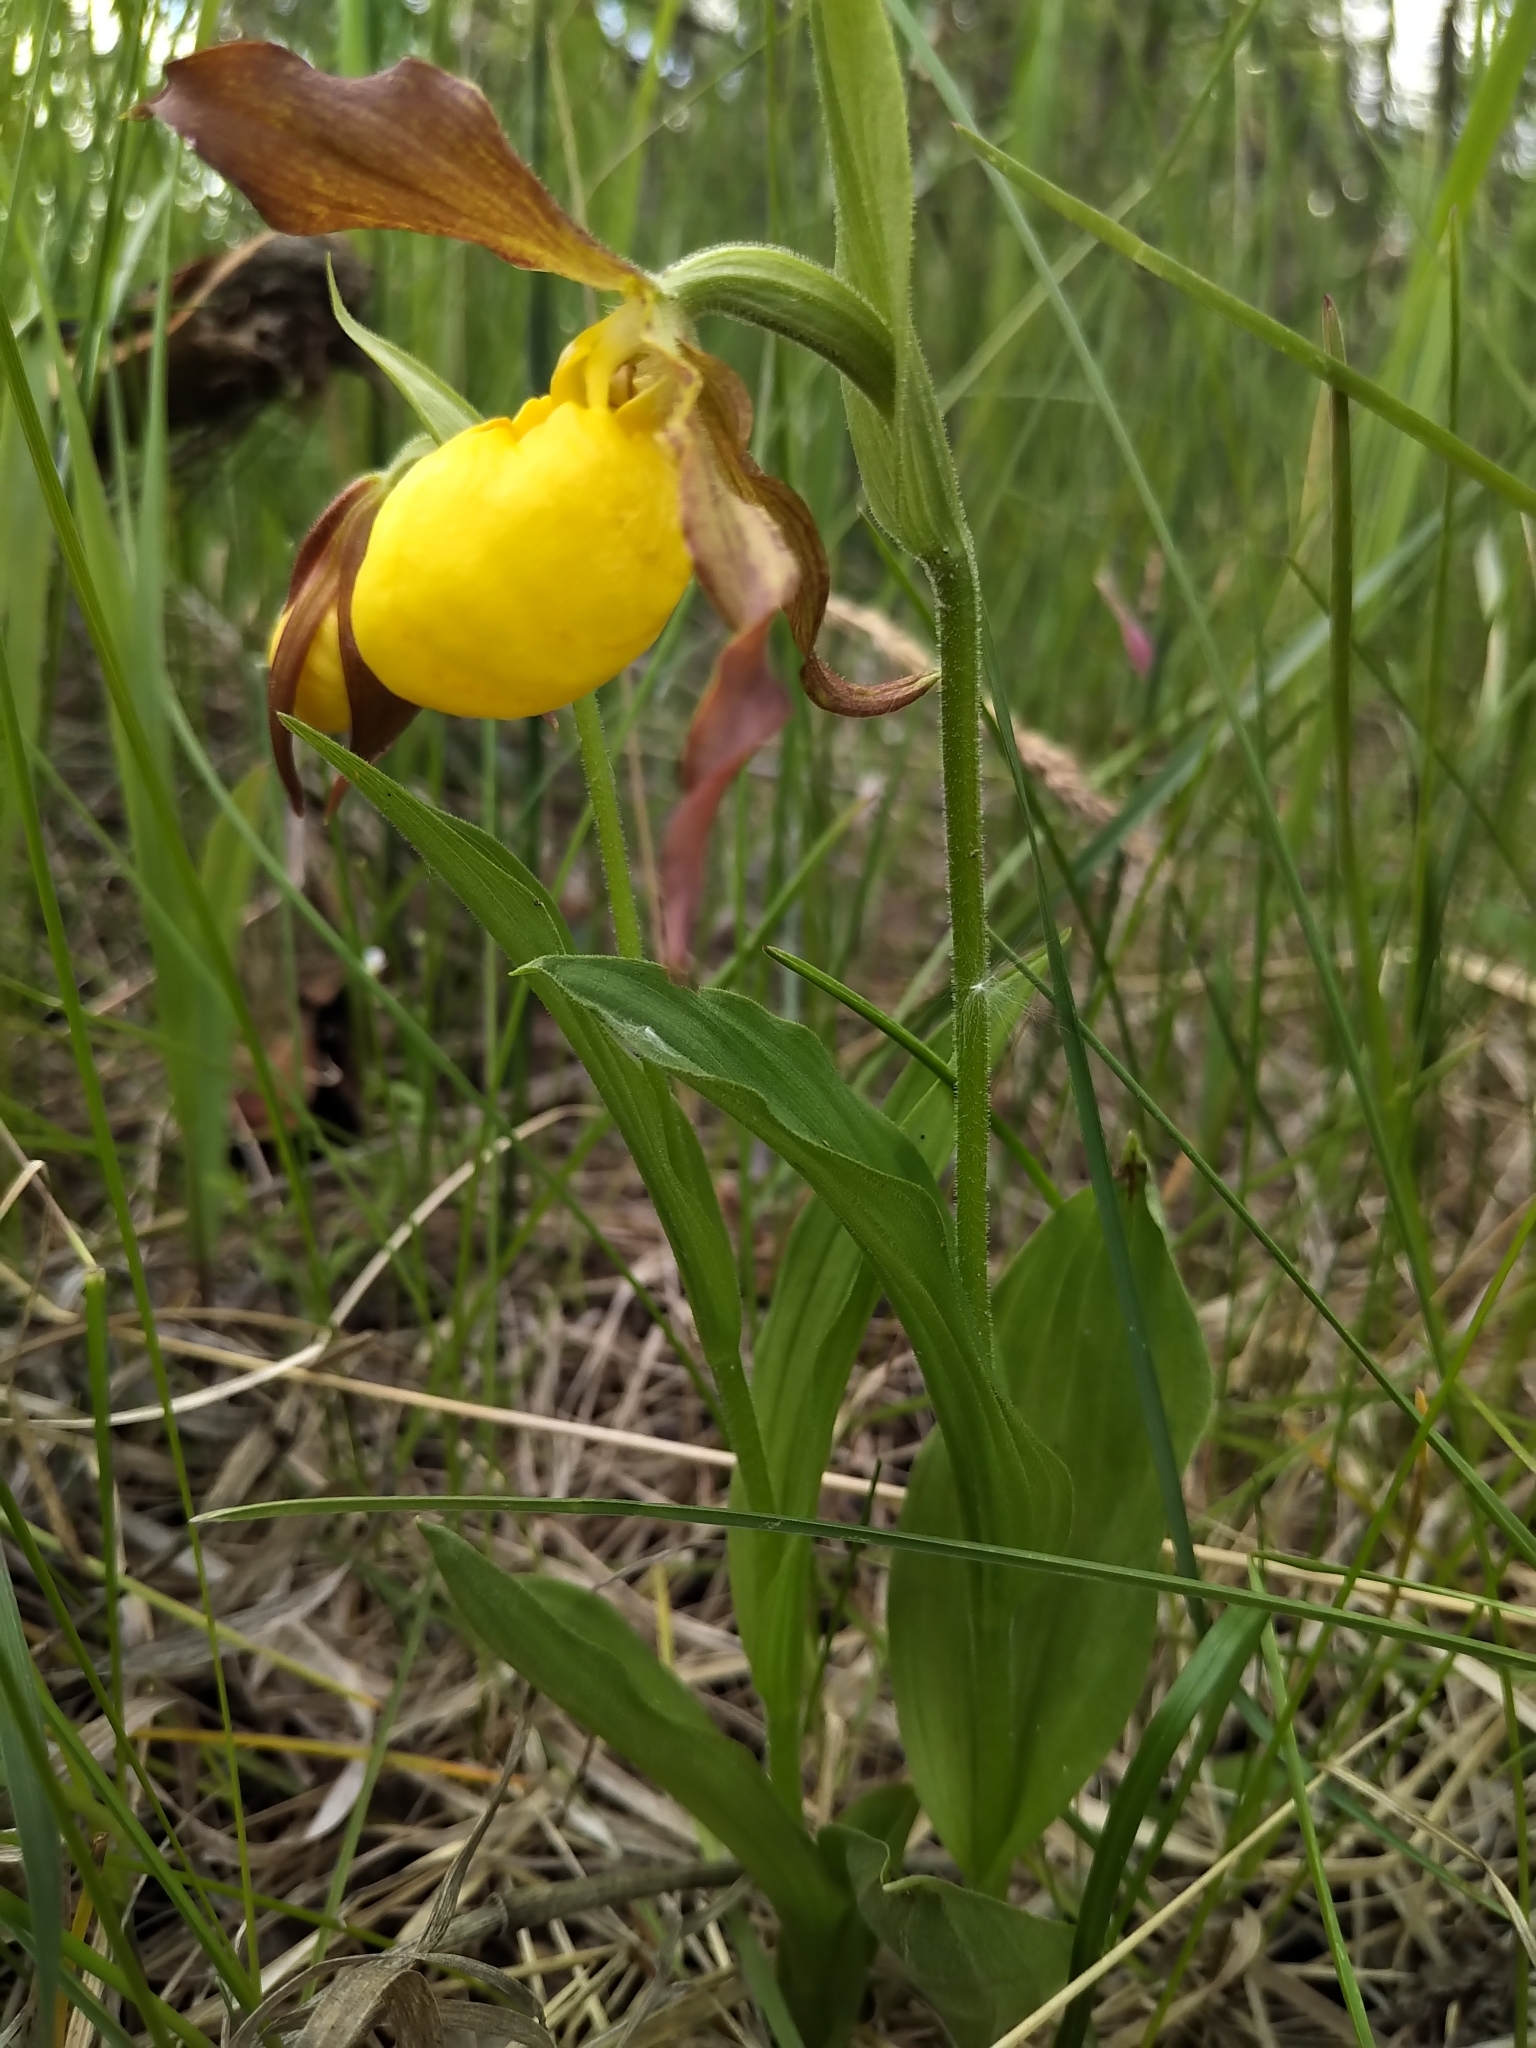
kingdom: Plantae
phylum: Tracheophyta
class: Liliopsida
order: Asparagales
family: Orchidaceae
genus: Cypripedium
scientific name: Cypripedium parviflorum
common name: American yellow lady's-slipper
